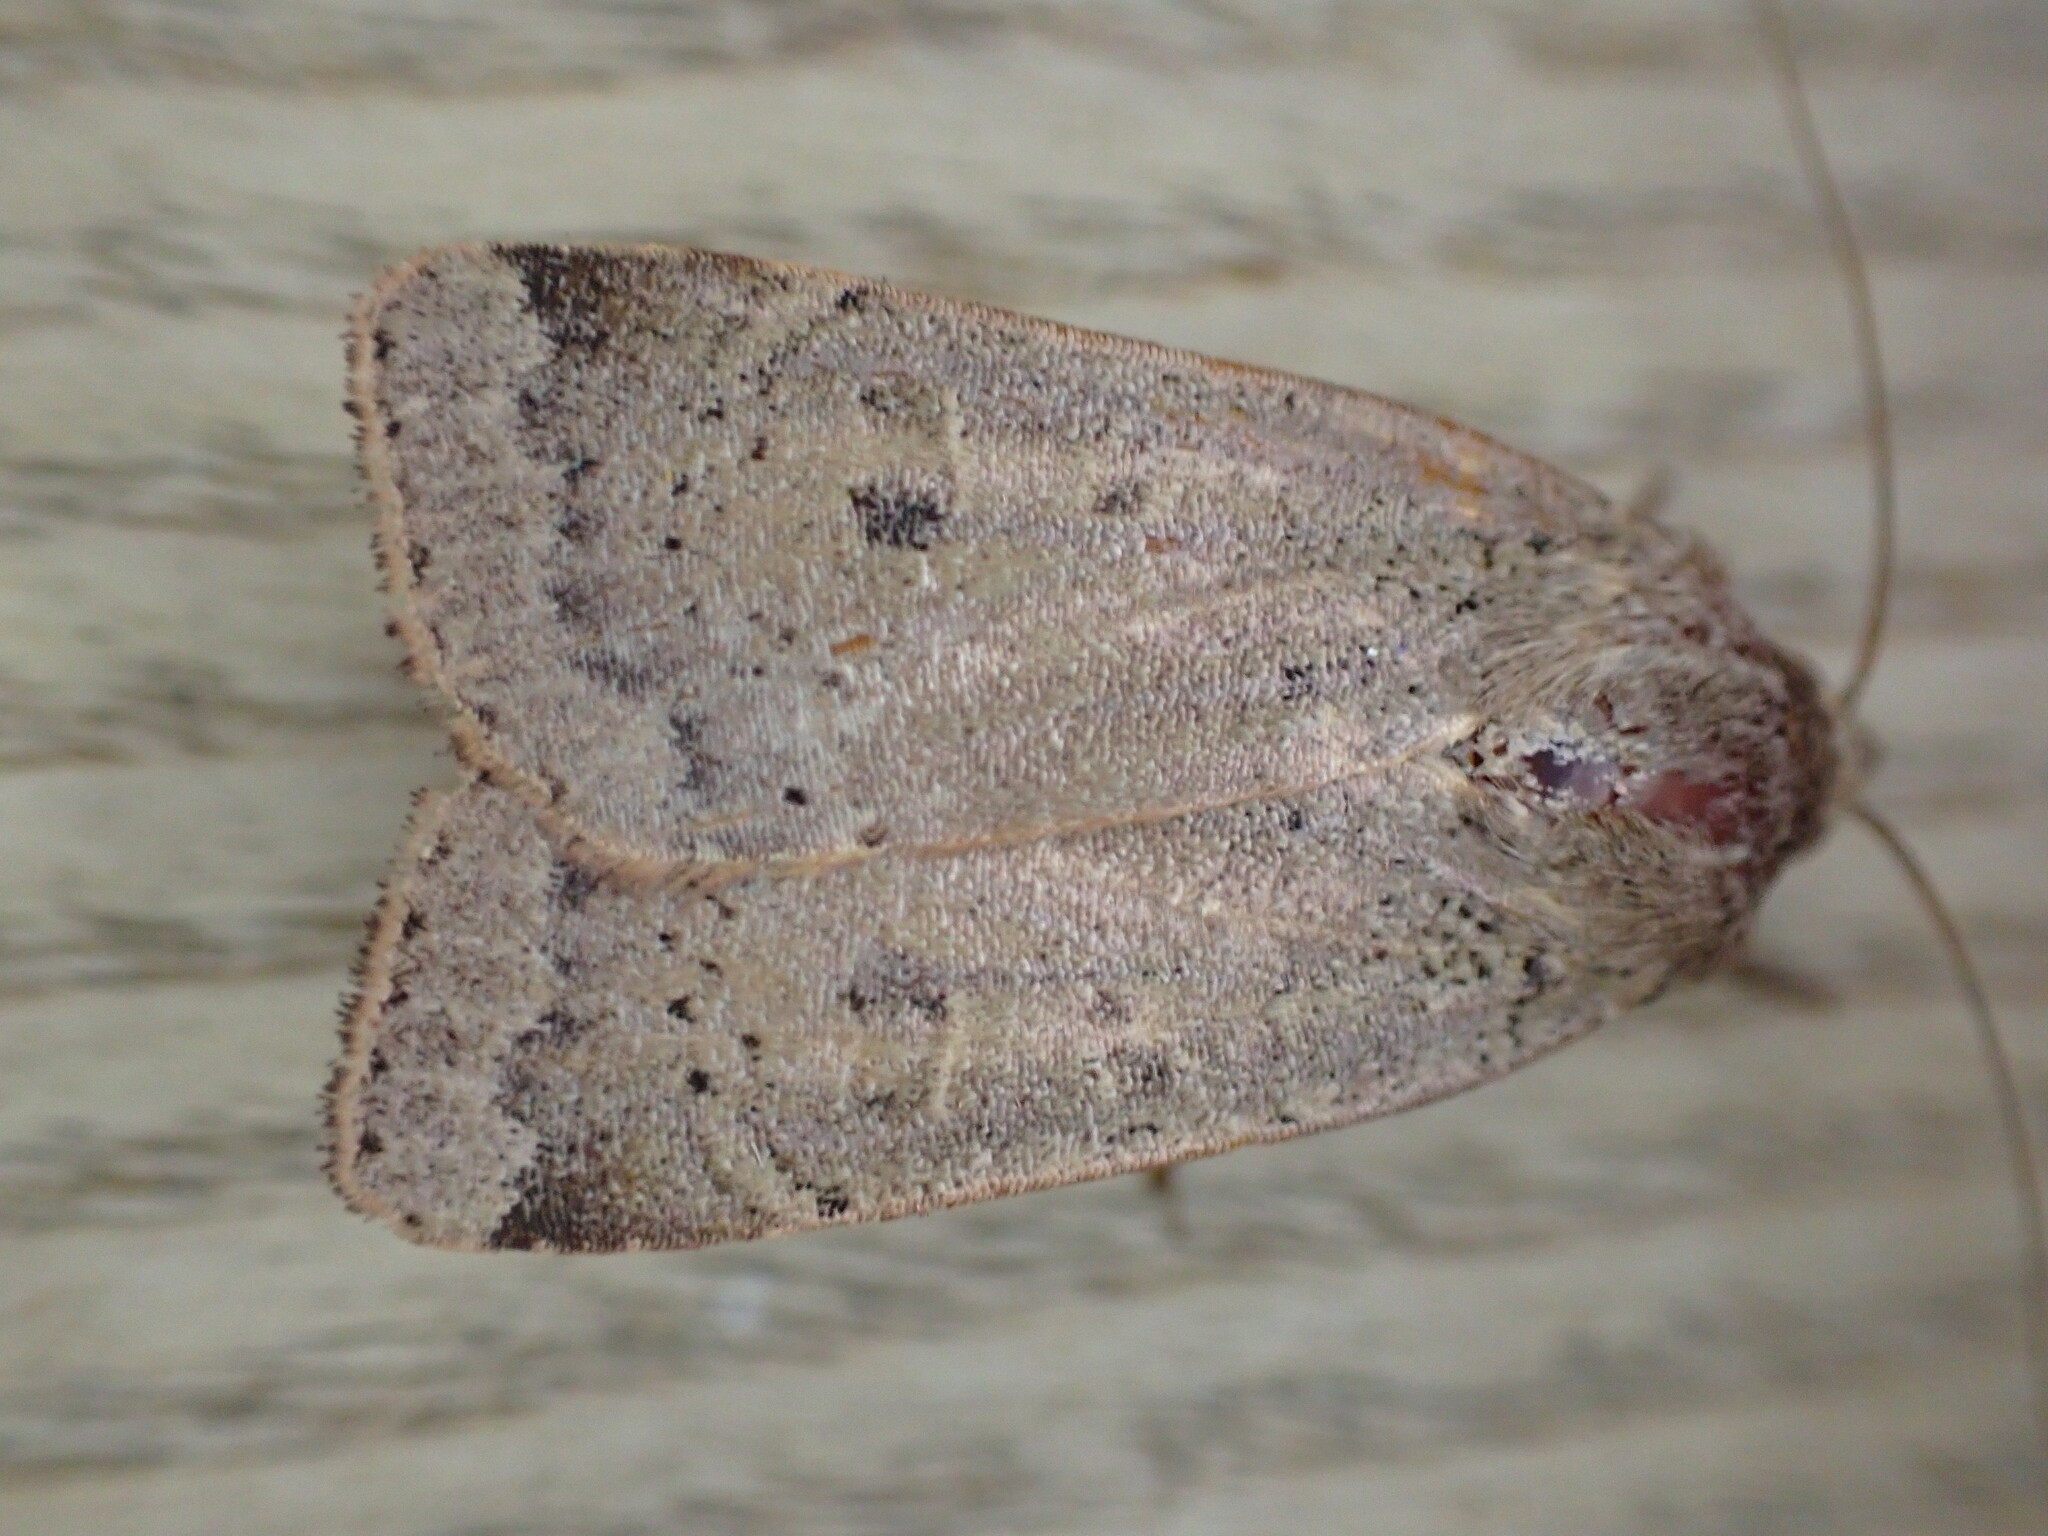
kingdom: Animalia
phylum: Arthropoda
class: Insecta
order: Lepidoptera
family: Noctuidae
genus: Noctua
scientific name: Noctua comes
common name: Lesser yellow underwing
